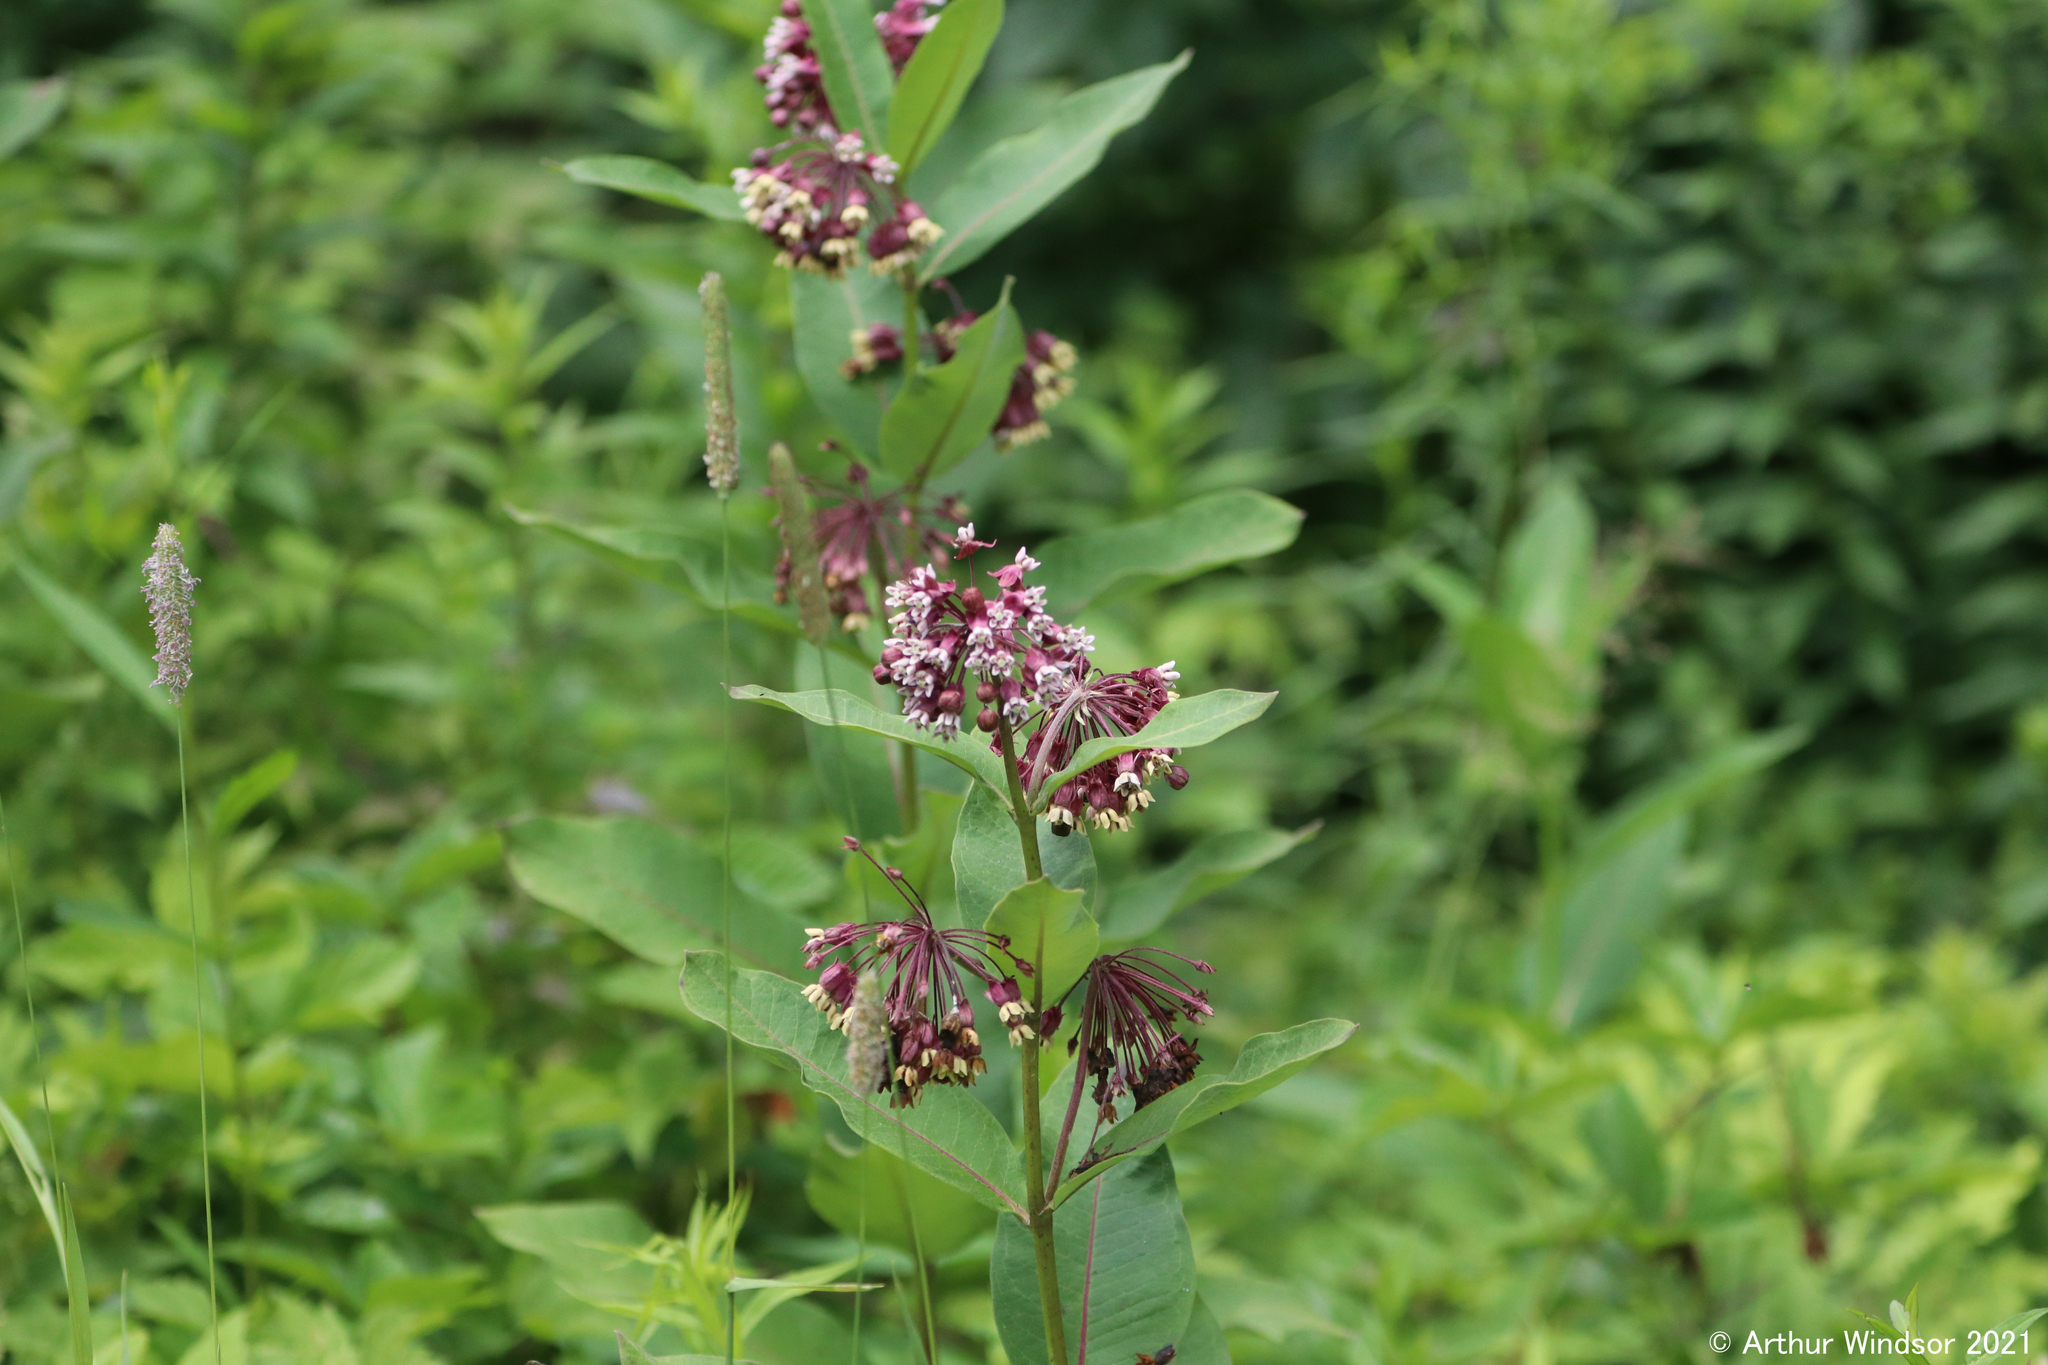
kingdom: Plantae
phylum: Tracheophyta
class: Magnoliopsida
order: Gentianales
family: Apocynaceae
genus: Asclepias
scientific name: Asclepias syriaca
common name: Common milkweed
